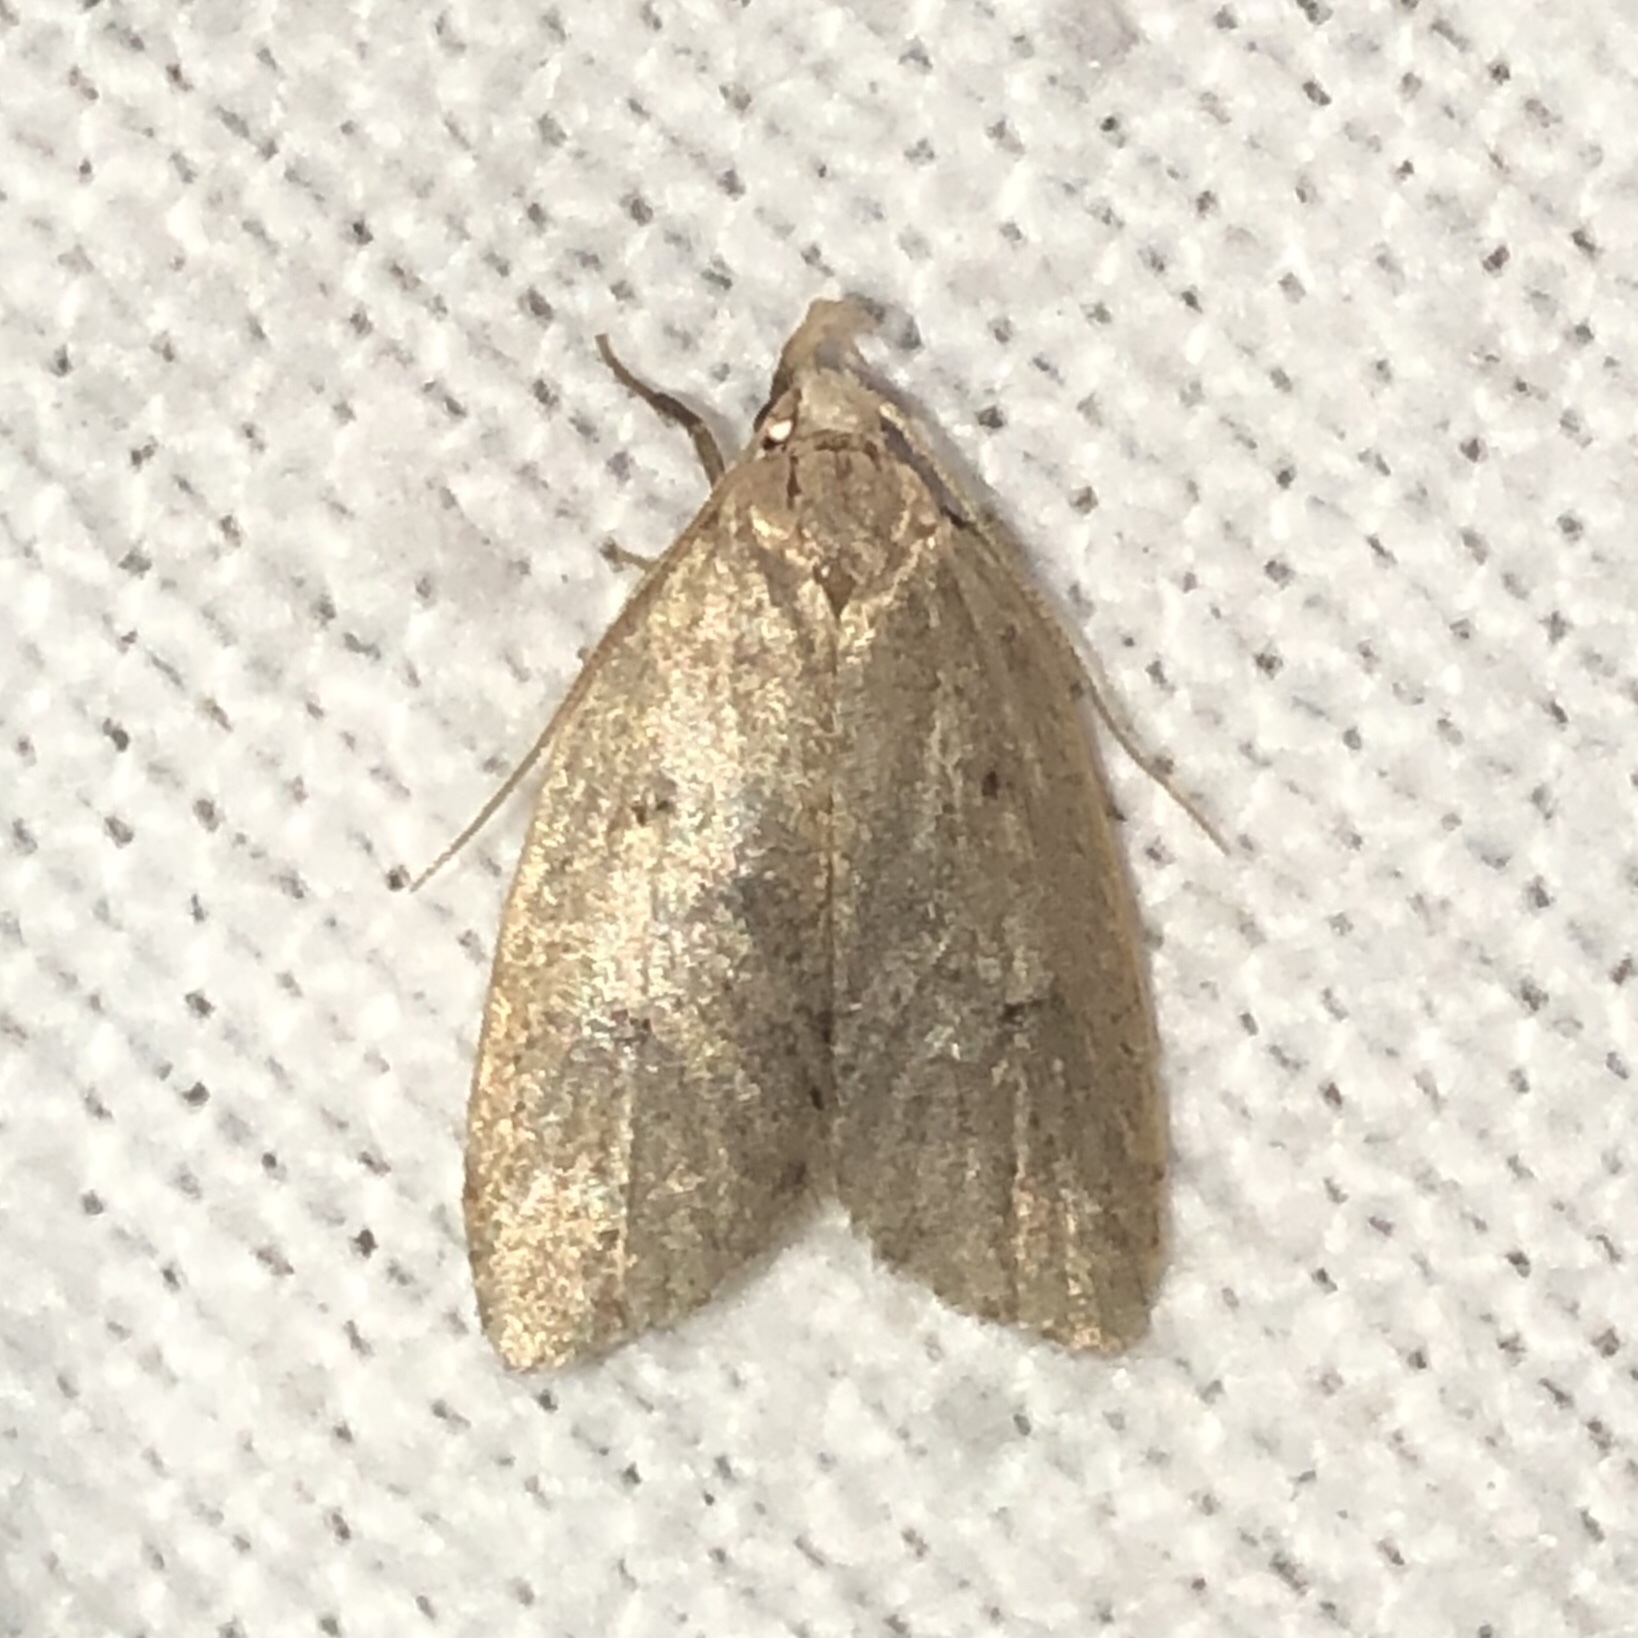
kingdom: Animalia
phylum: Arthropoda
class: Insecta
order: Lepidoptera
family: Peleopodidae
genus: Machimia
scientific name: Machimia tentoriferella
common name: Gold-striped leaftier moth
